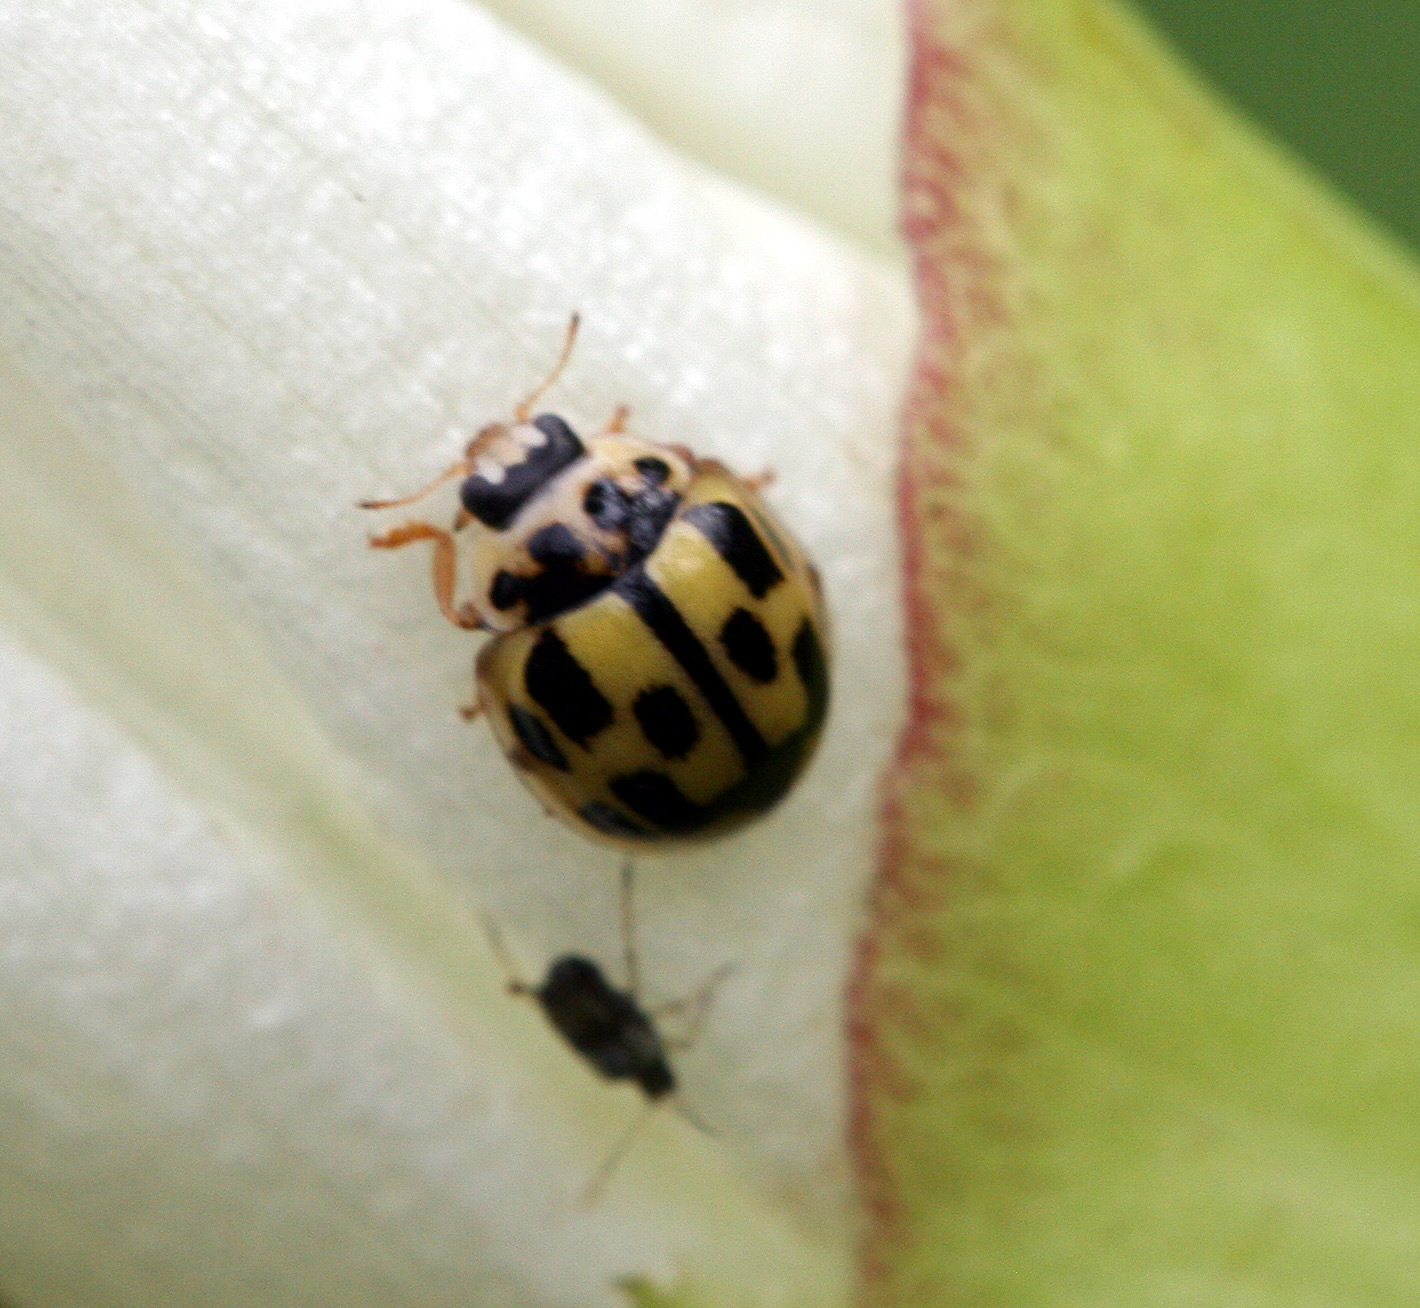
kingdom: Animalia
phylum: Arthropoda
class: Insecta
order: Coleoptera
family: Coccinellidae
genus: Propylaea
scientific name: Propylaea quatuordecimpunctata
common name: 14-spotted ladybird beetle
